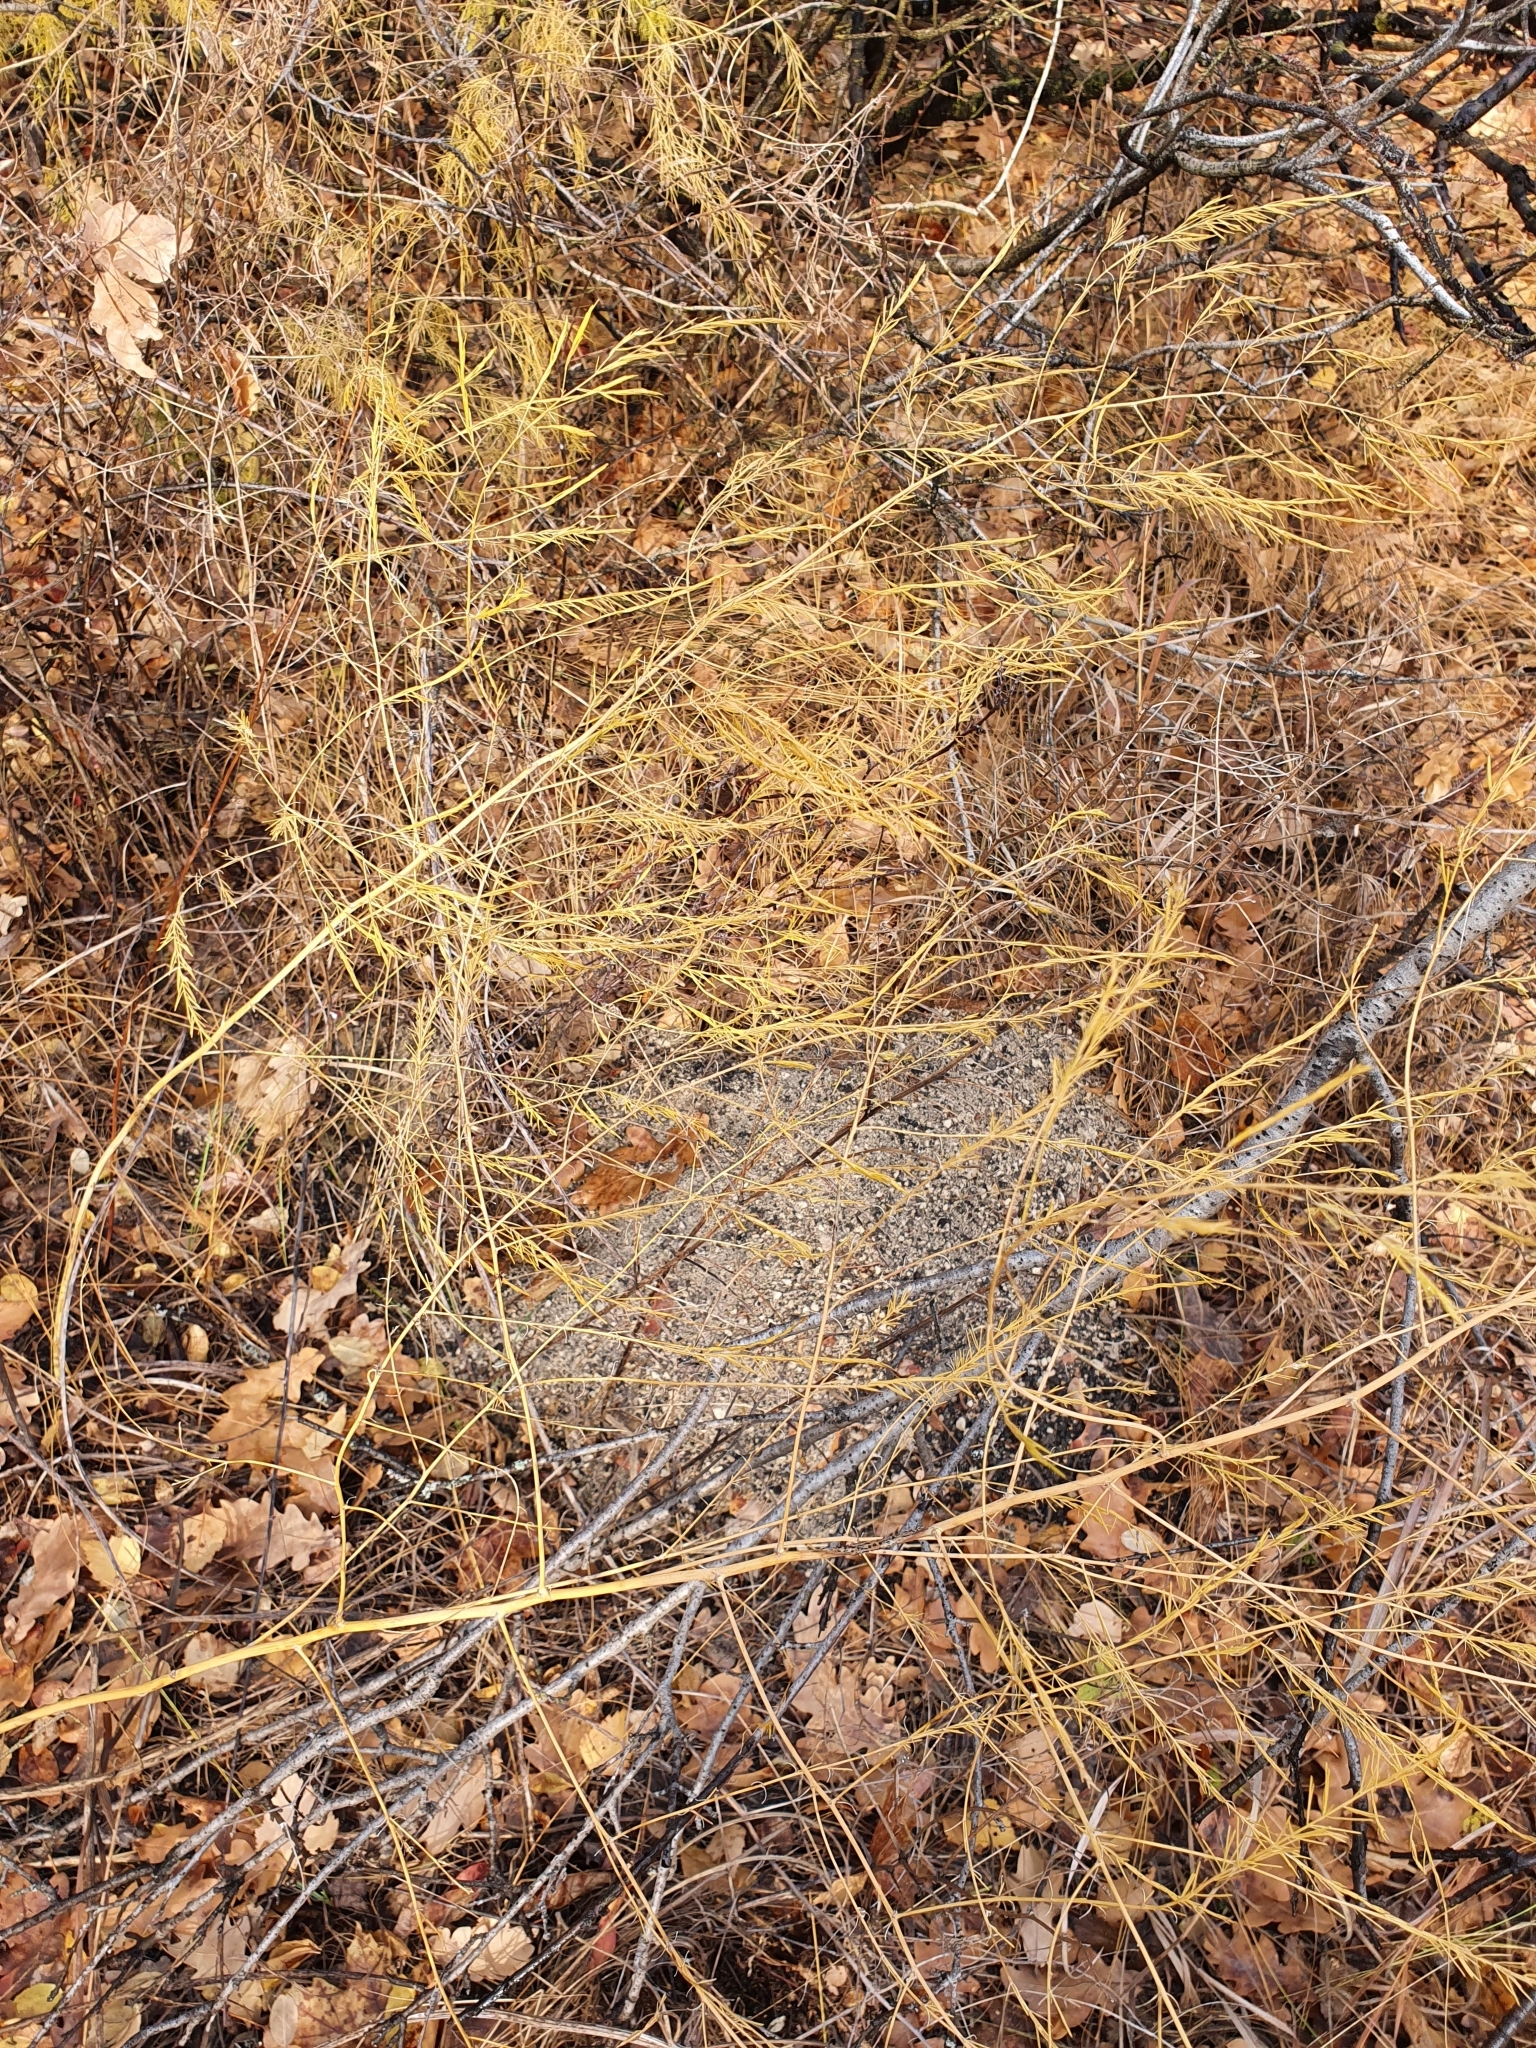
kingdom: Plantae
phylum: Tracheophyta
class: Liliopsida
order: Asparagales
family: Asparagaceae
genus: Asparagus
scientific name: Asparagus officinalis
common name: Garden asparagus
